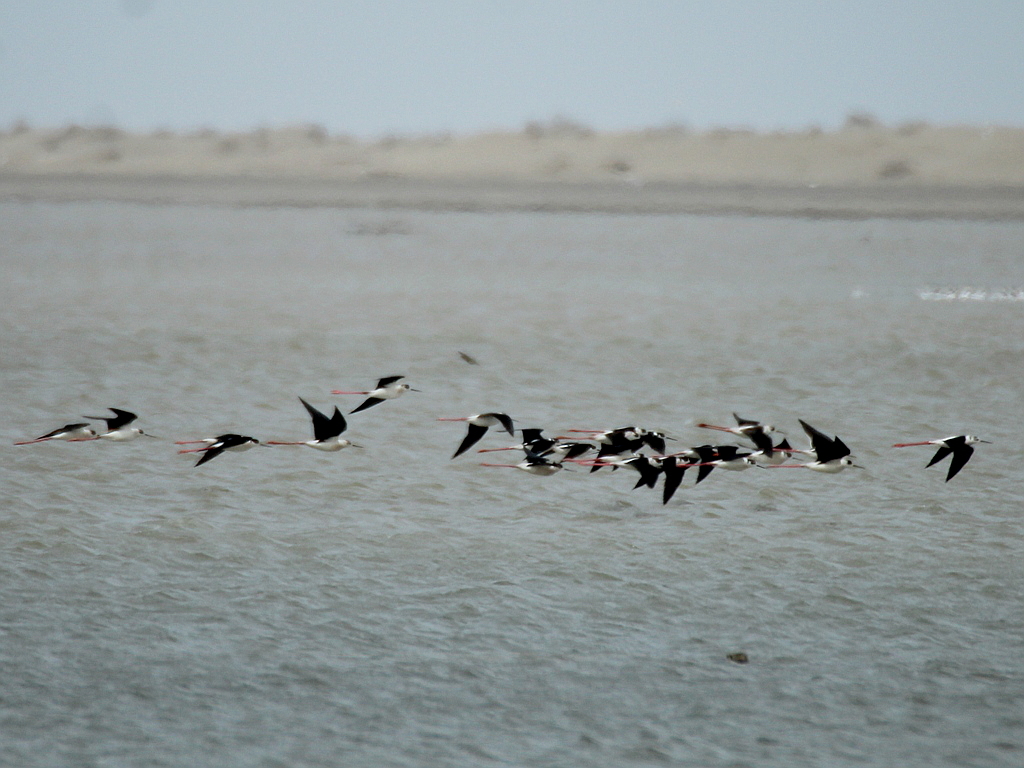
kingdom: Animalia
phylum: Chordata
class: Aves
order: Charadriiformes
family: Recurvirostridae
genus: Himantopus
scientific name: Himantopus himantopus
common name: Black-winged stilt
